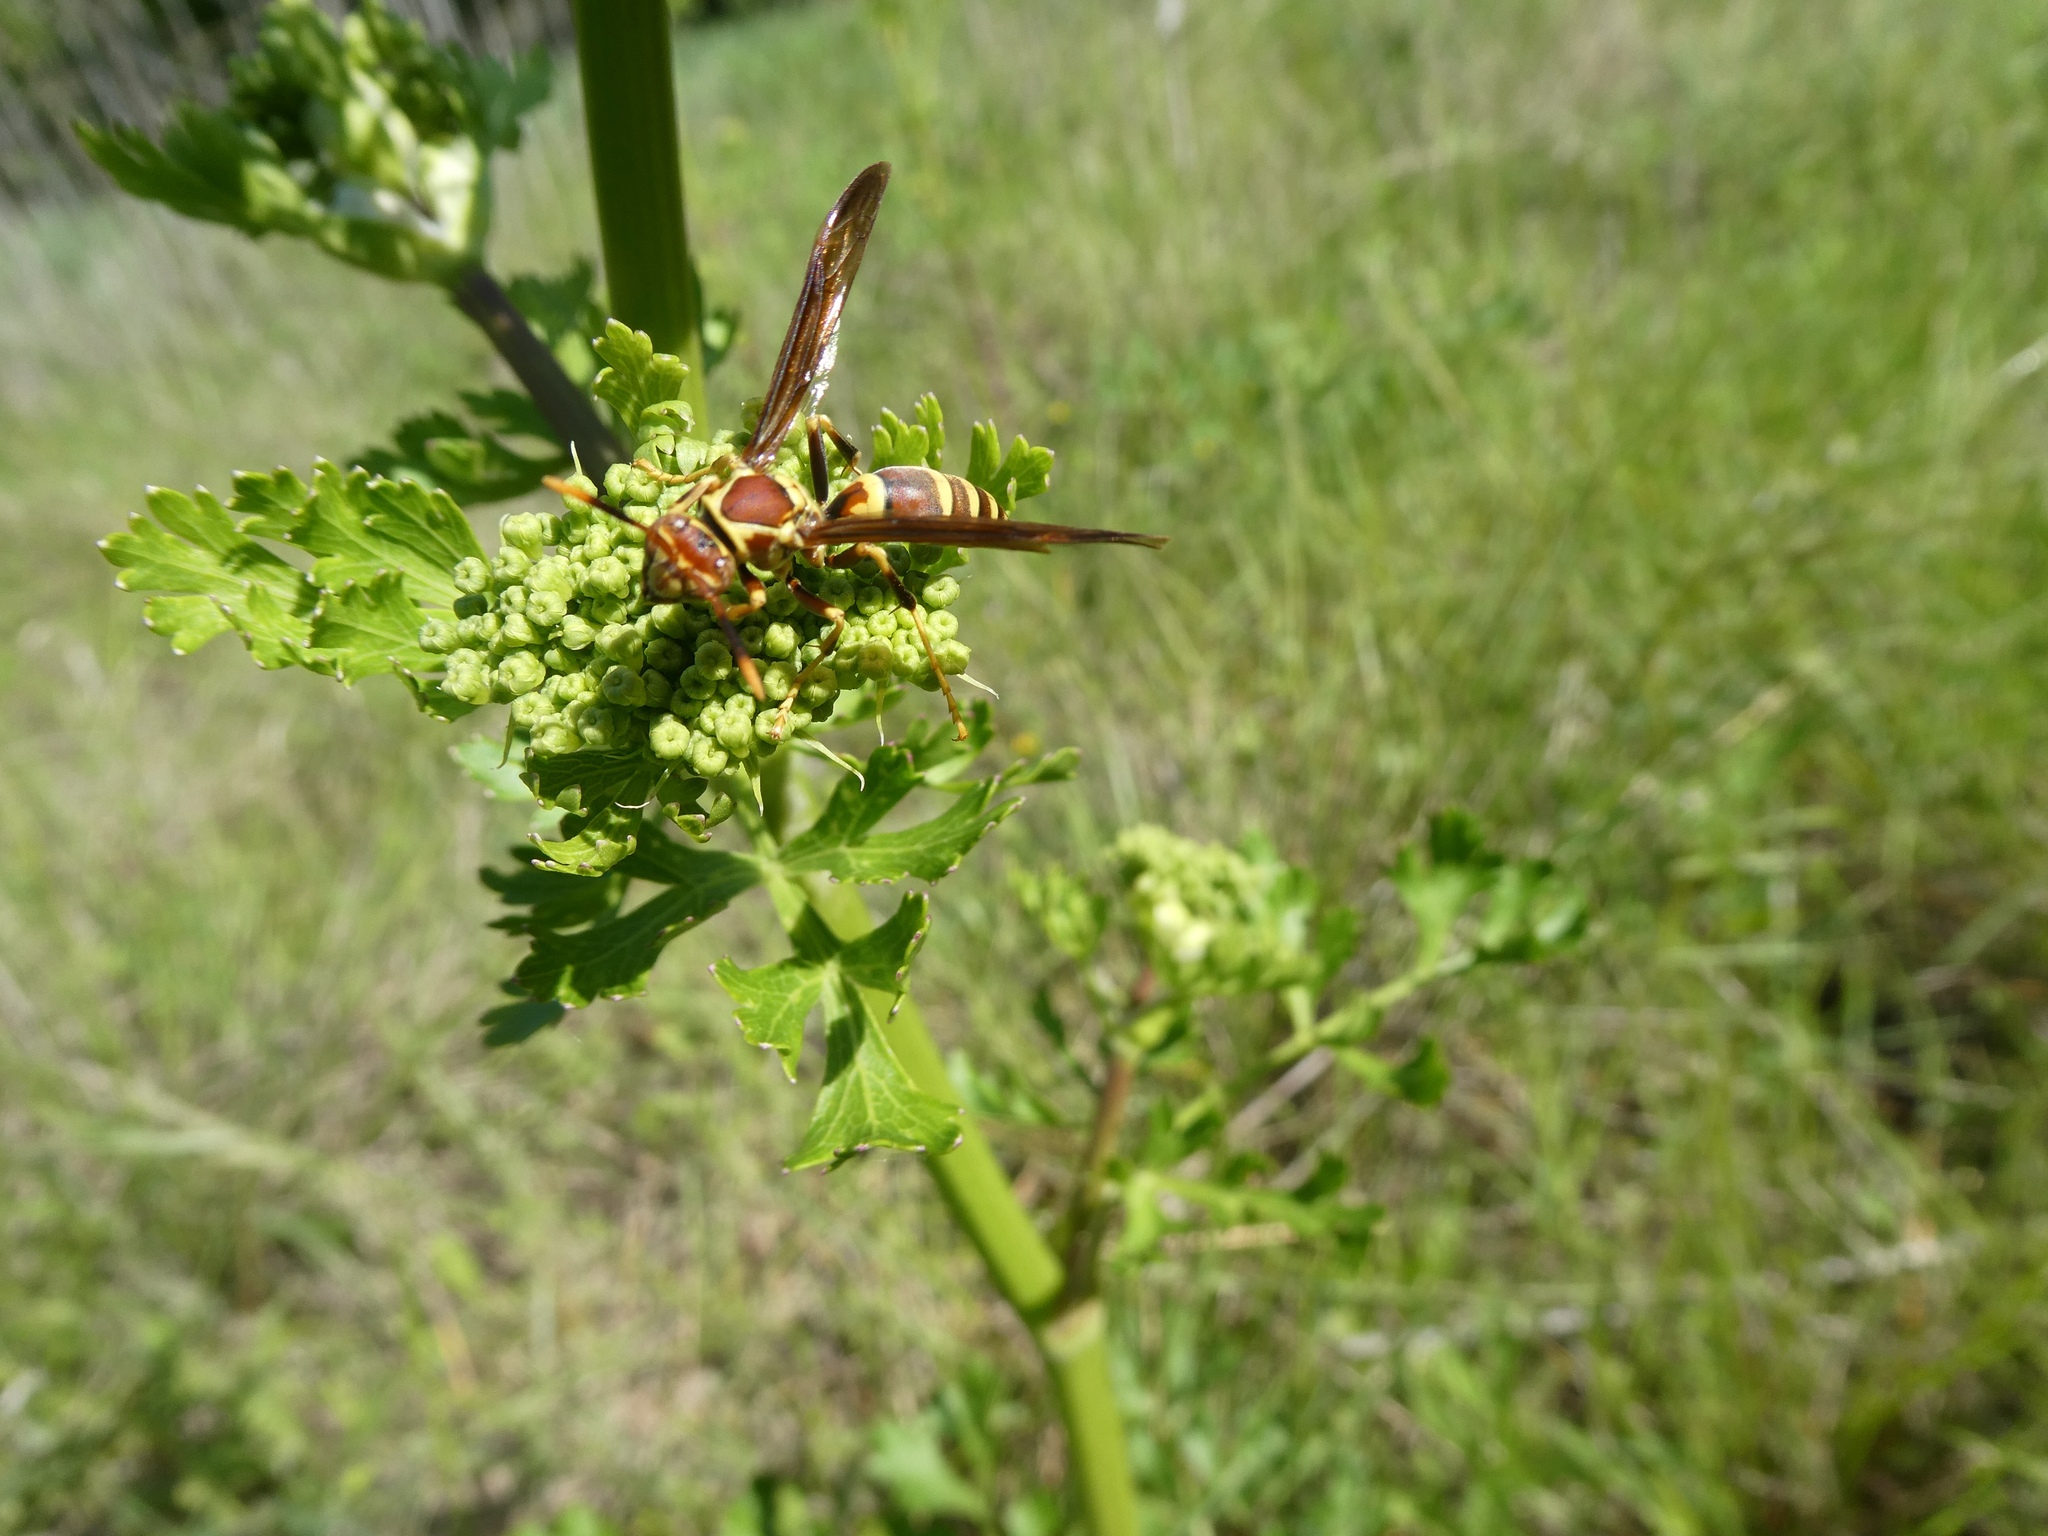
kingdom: Animalia
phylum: Arthropoda
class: Insecta
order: Hymenoptera
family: Eumenidae
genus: Polistes
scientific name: Polistes exclamans
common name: Paper wasp
